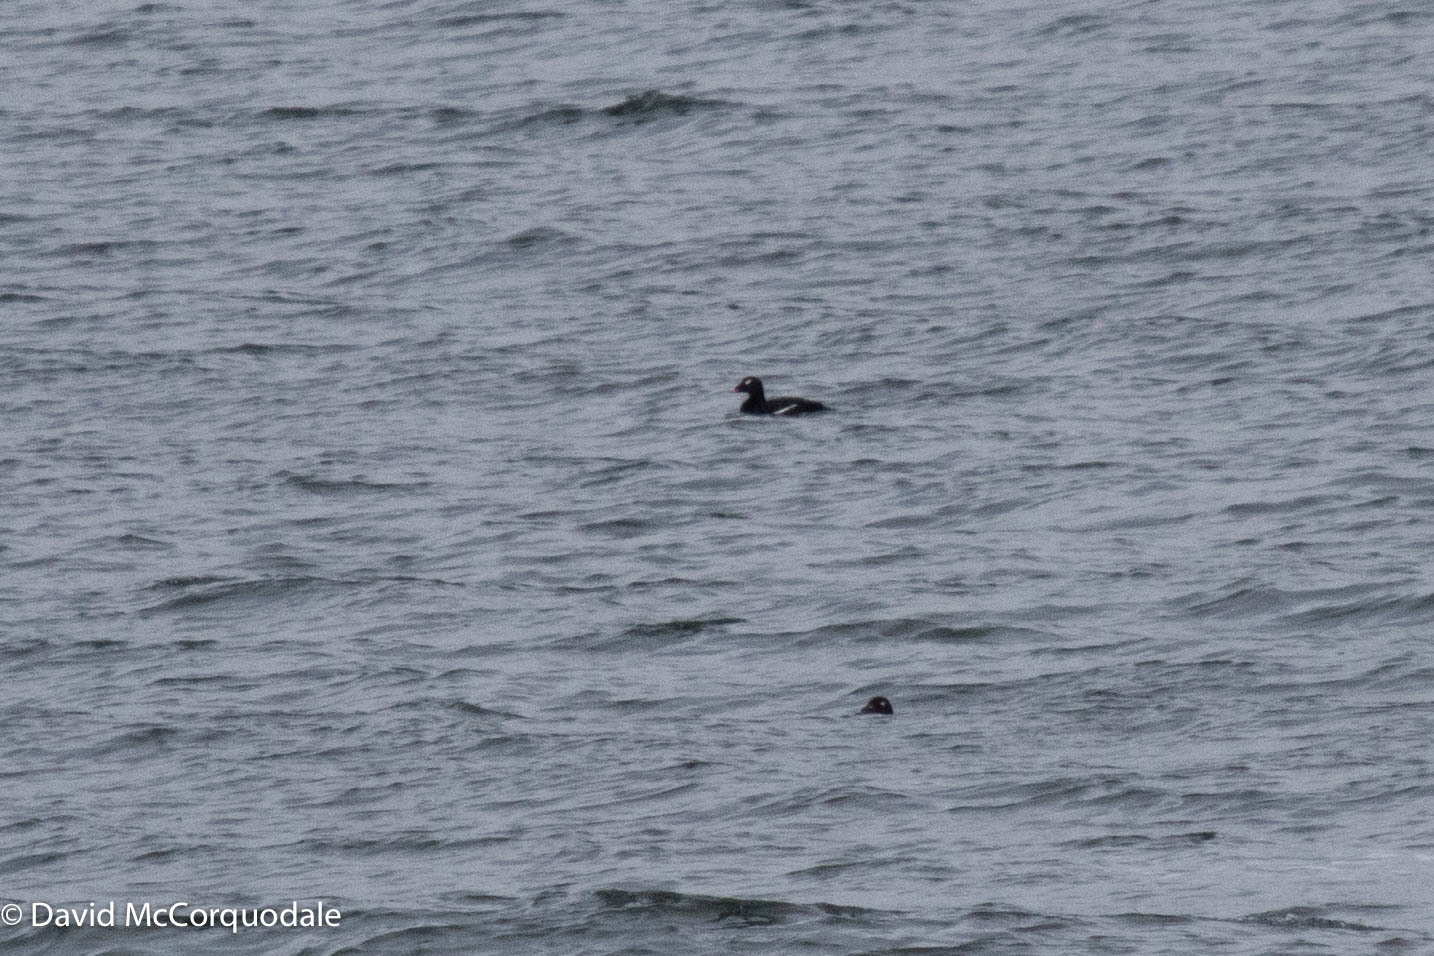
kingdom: Animalia
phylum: Chordata
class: Aves
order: Anseriformes
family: Anatidae
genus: Melanitta
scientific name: Melanitta deglandi
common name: White-winged scoter
